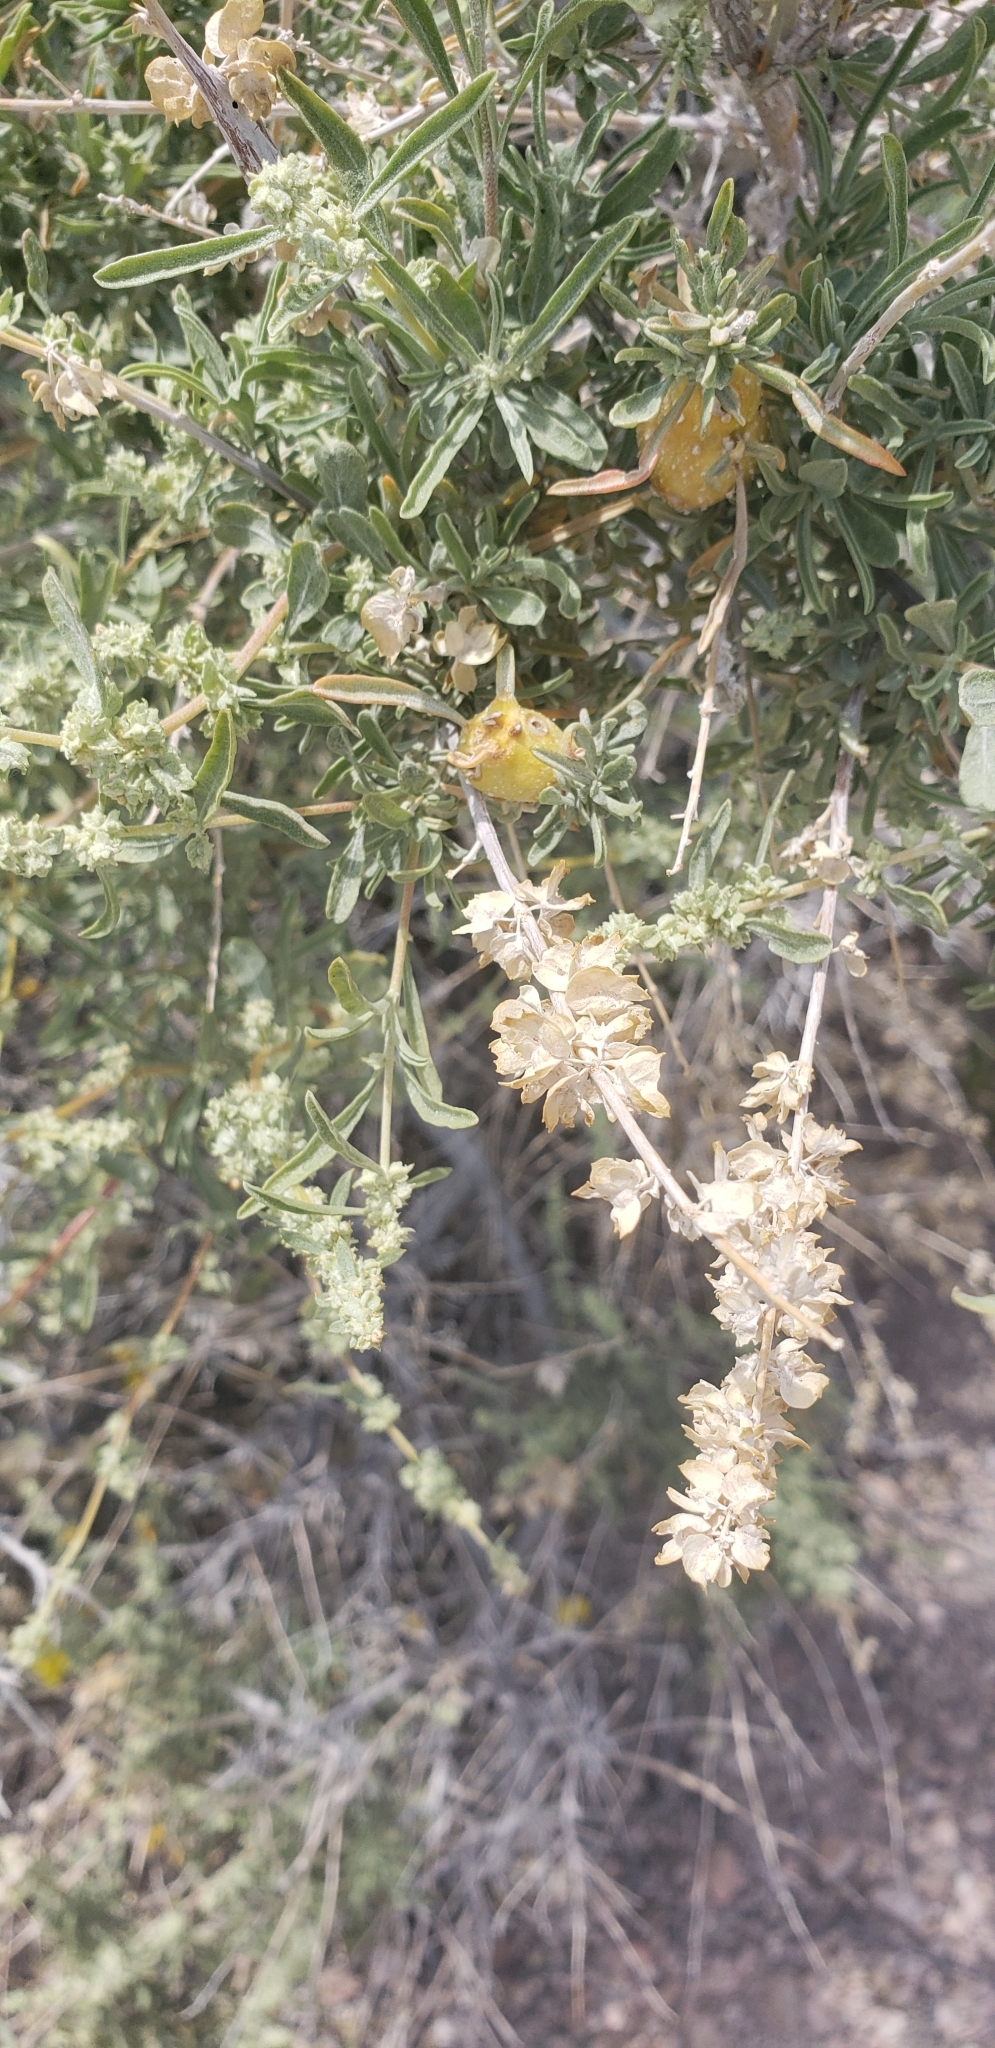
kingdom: Plantae
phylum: Tracheophyta
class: Magnoliopsida
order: Caryophyllales
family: Amaranthaceae
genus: Atriplex
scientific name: Atriplex canescens
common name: Four-wing saltbush
